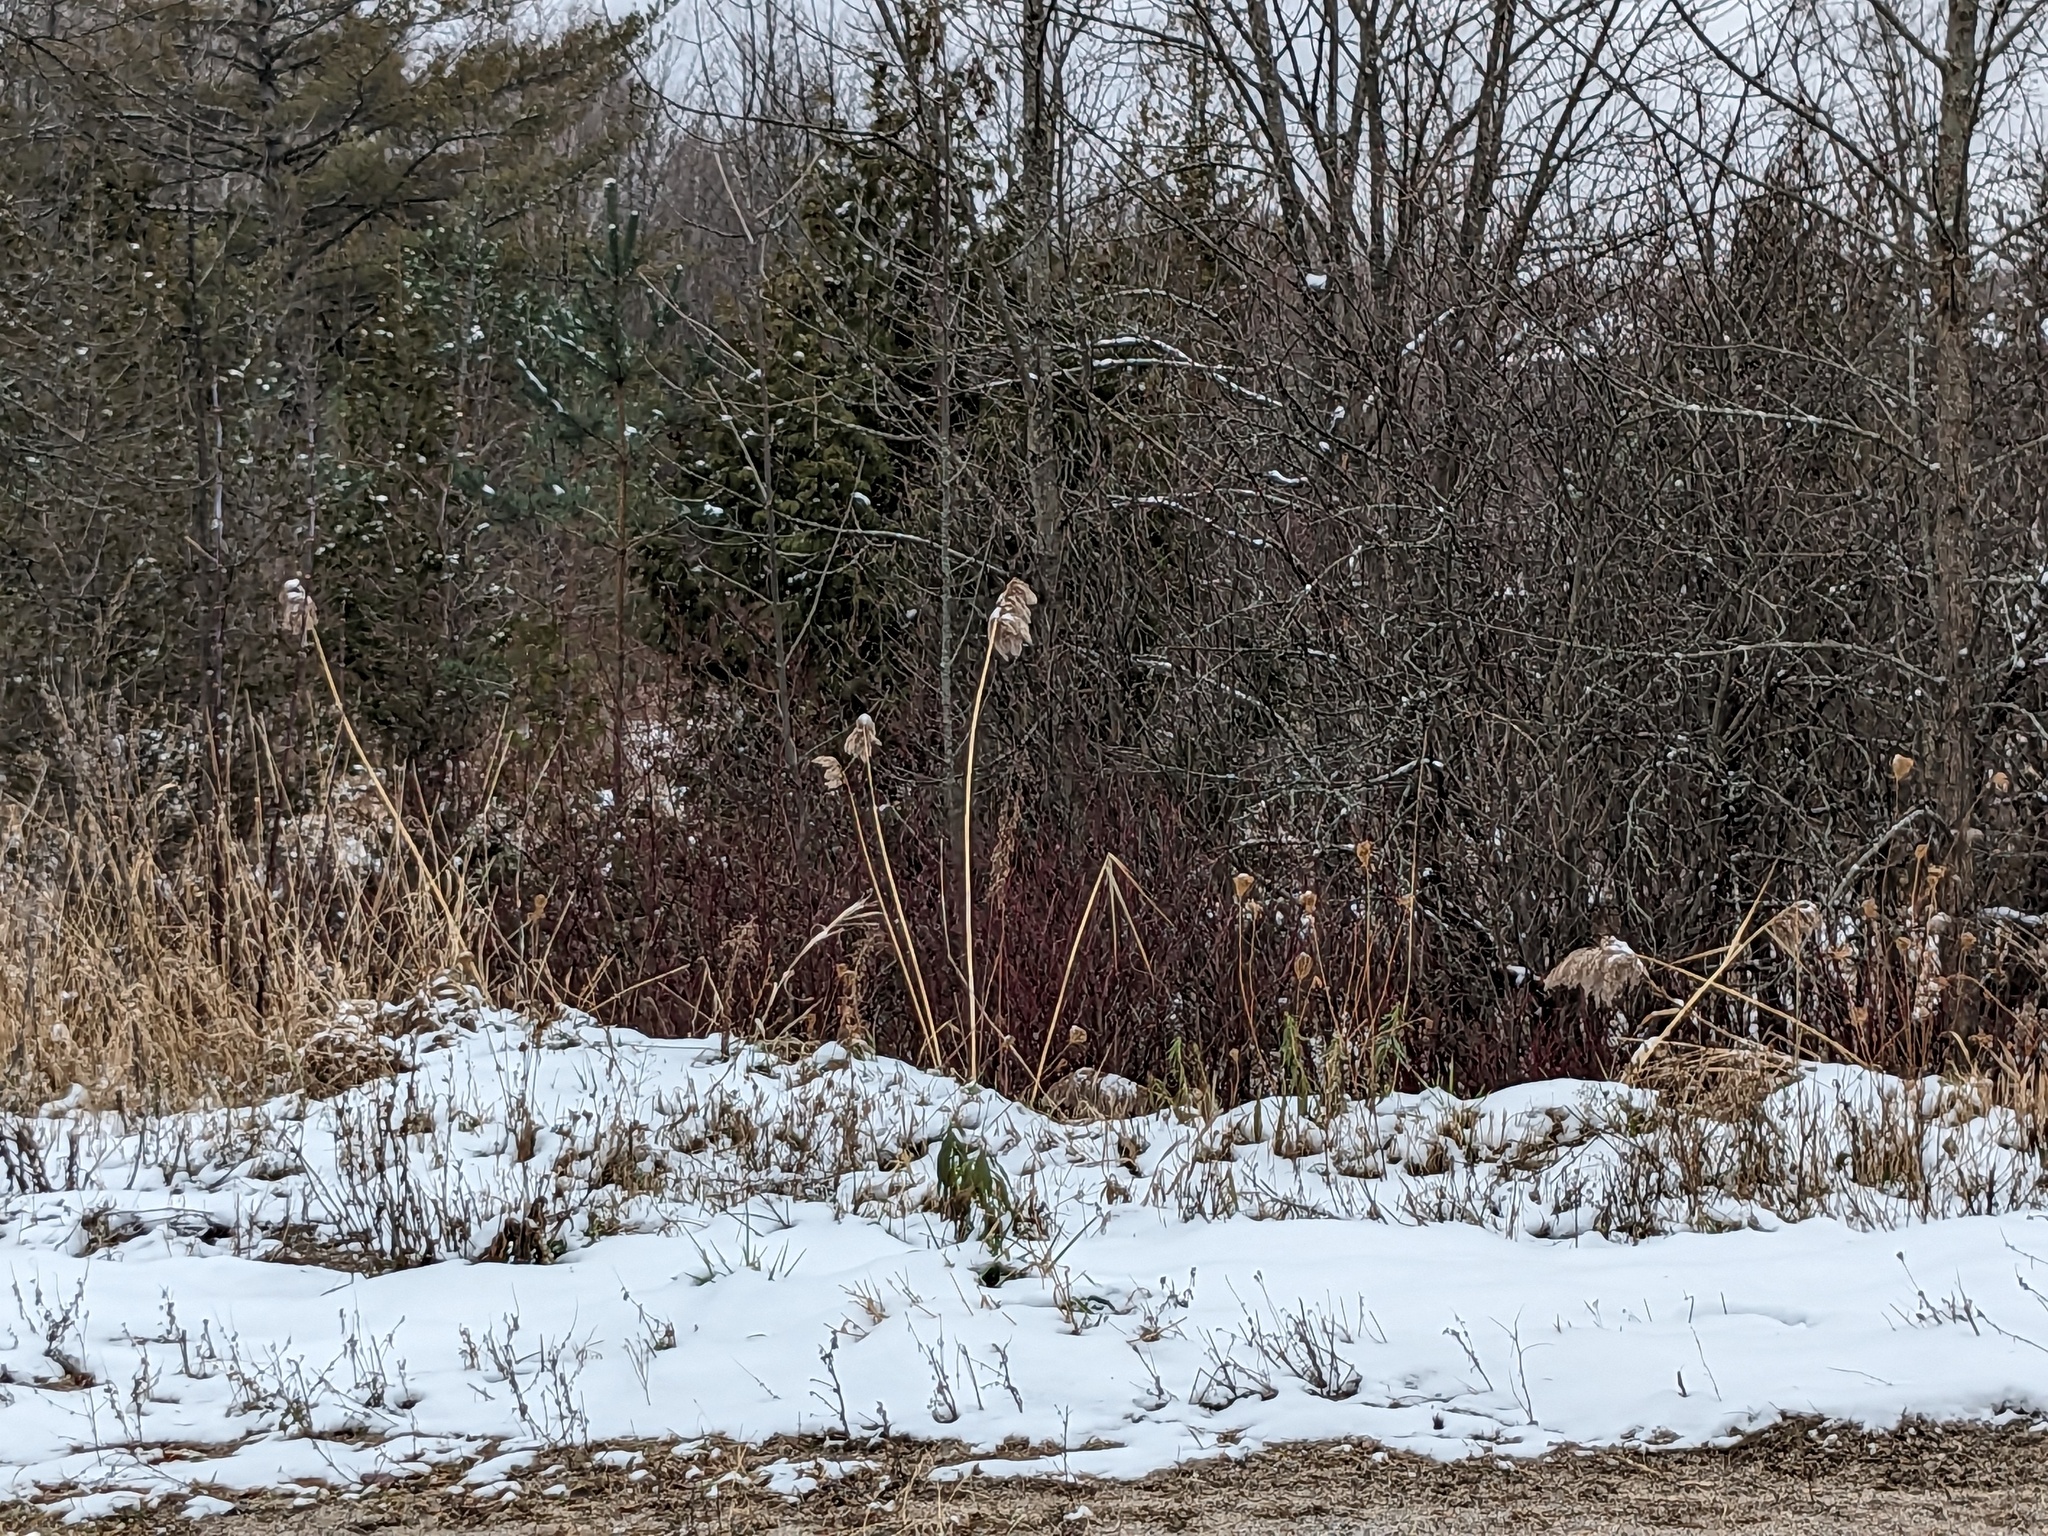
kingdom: Plantae
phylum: Tracheophyta
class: Liliopsida
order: Poales
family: Poaceae
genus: Phragmites
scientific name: Phragmites australis
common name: Common reed
